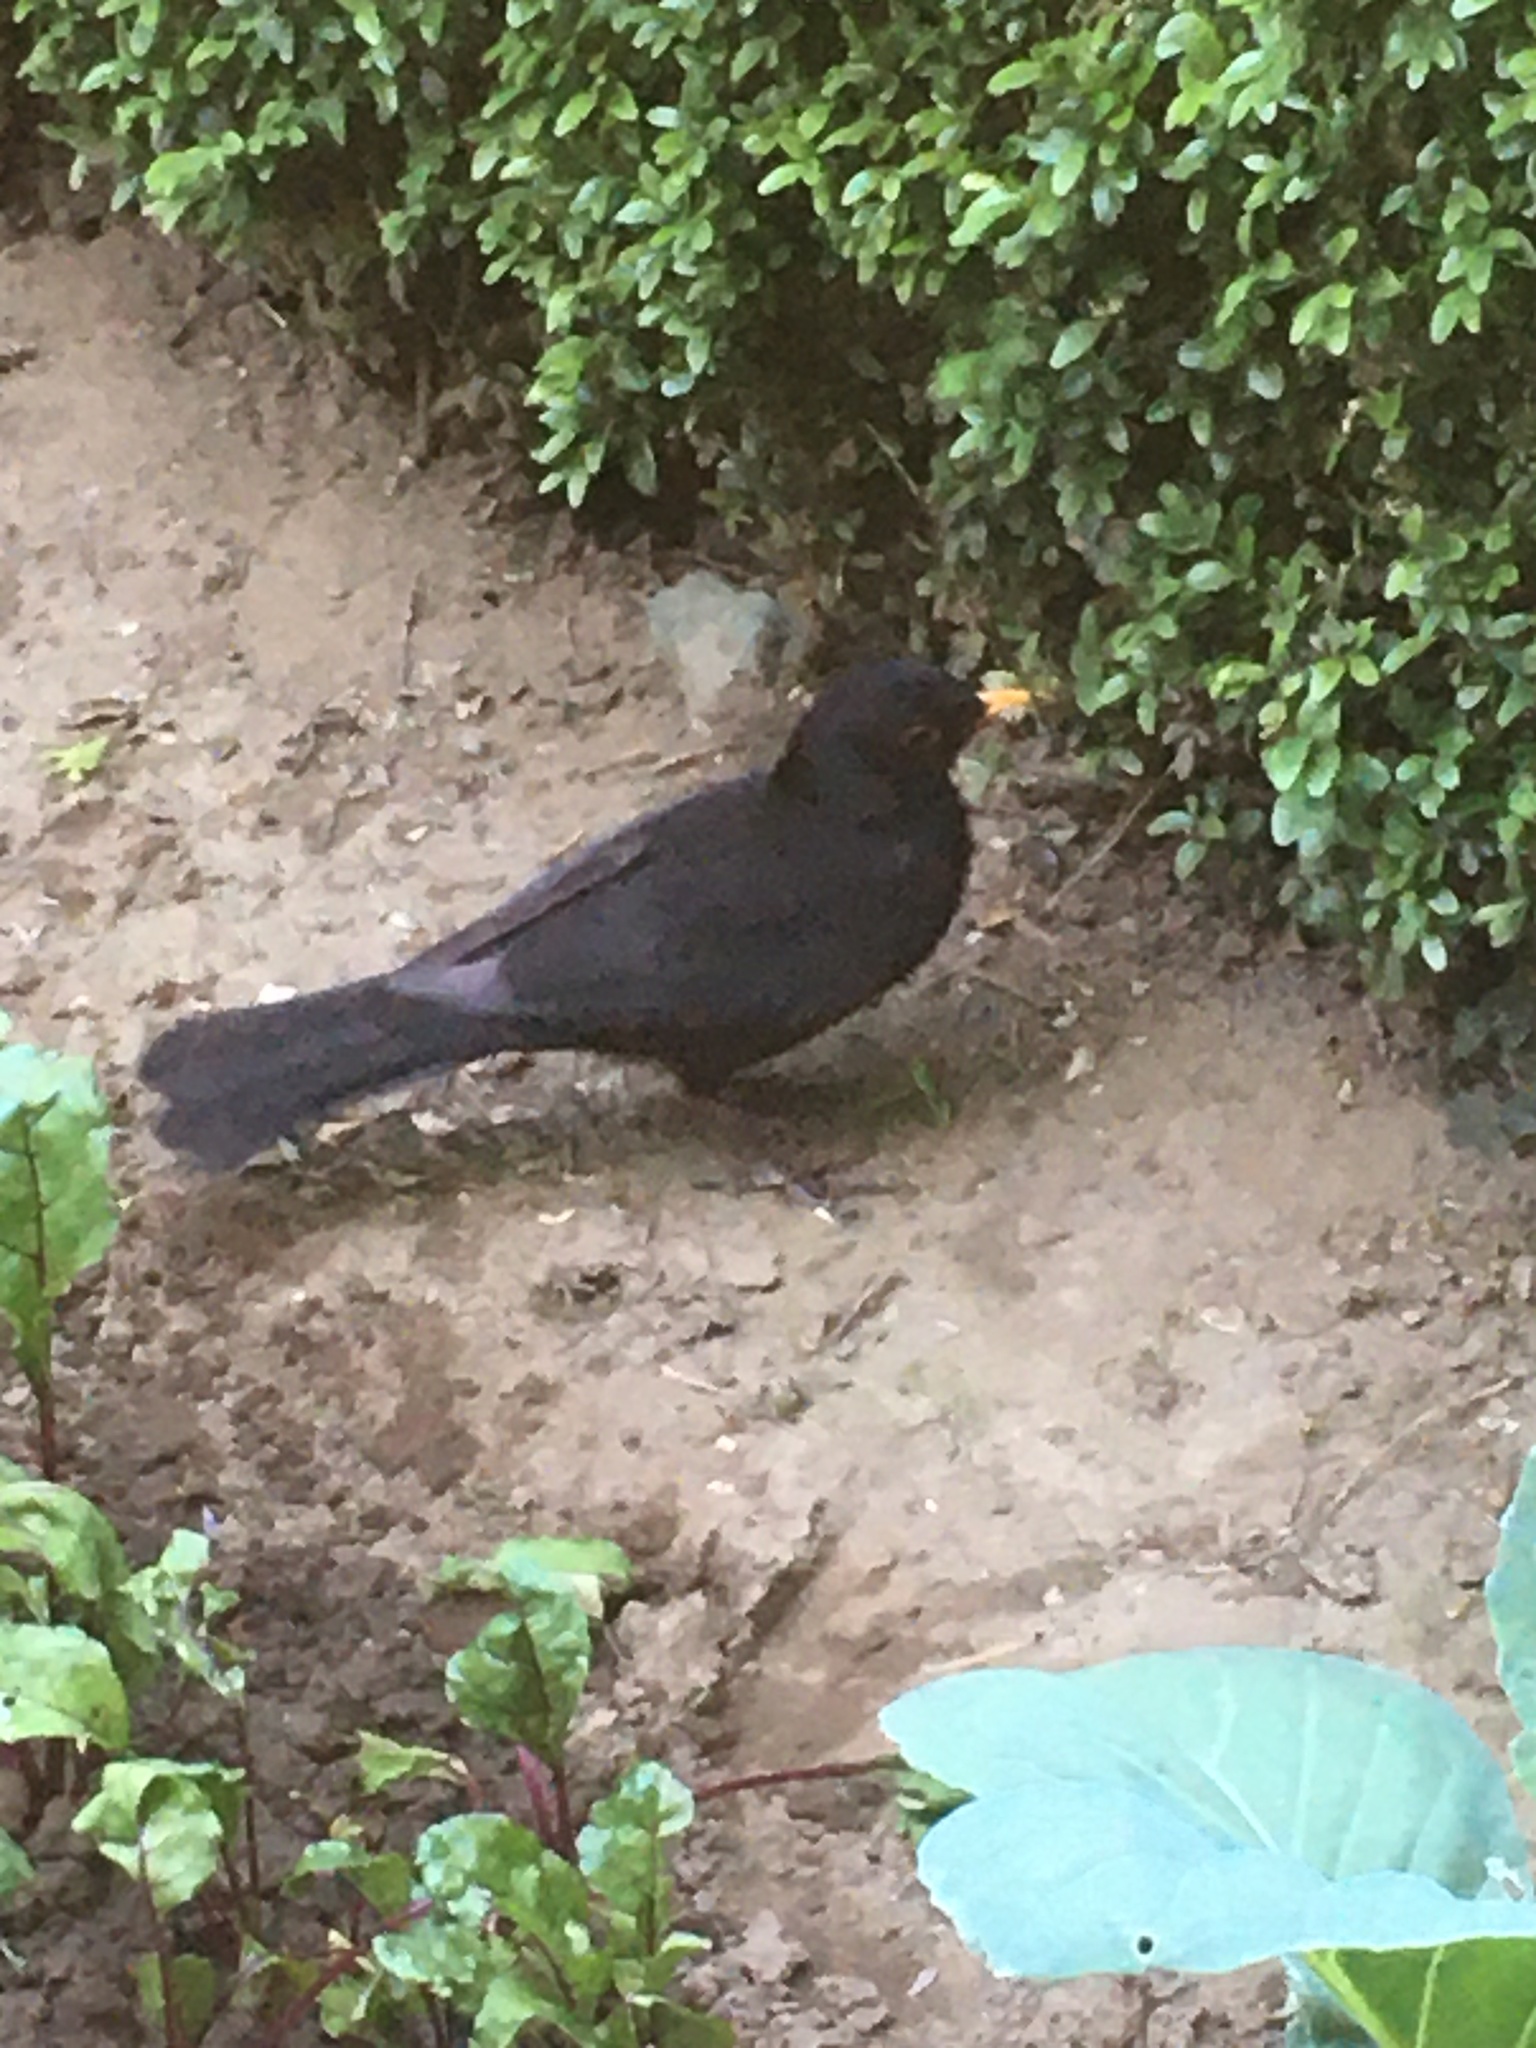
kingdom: Animalia
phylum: Chordata
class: Aves
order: Passeriformes
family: Turdidae
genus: Turdus
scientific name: Turdus merula
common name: Common blackbird
